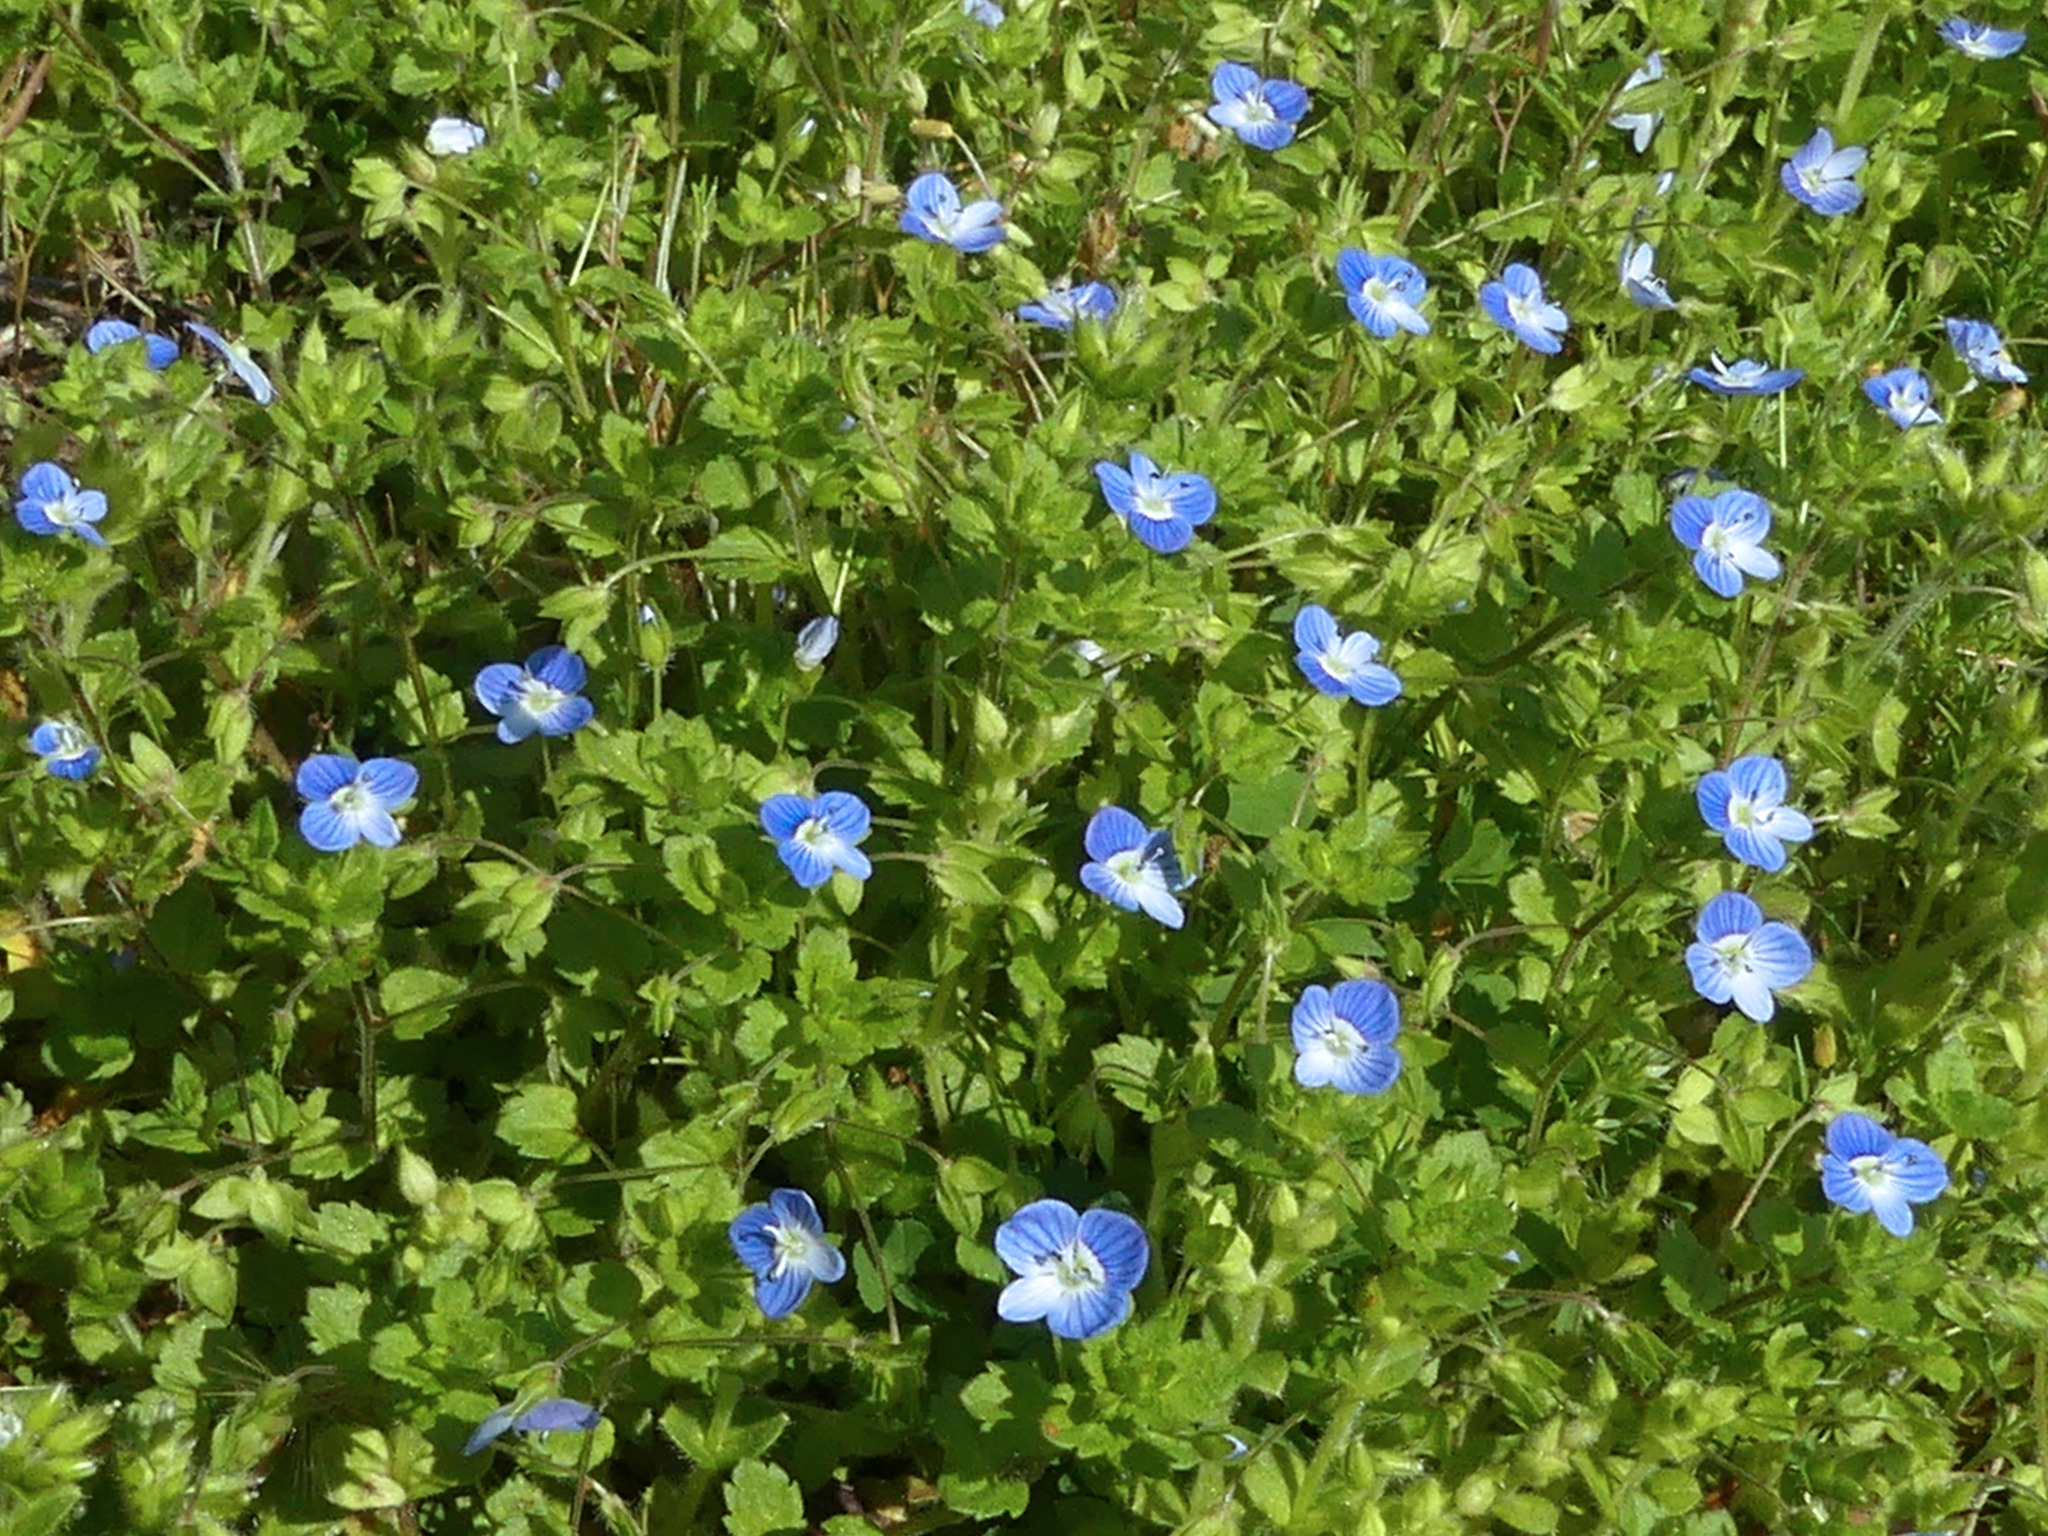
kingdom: Plantae
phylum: Tracheophyta
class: Magnoliopsida
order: Lamiales
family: Plantaginaceae
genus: Veronica
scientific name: Veronica persica
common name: Common field-speedwell
